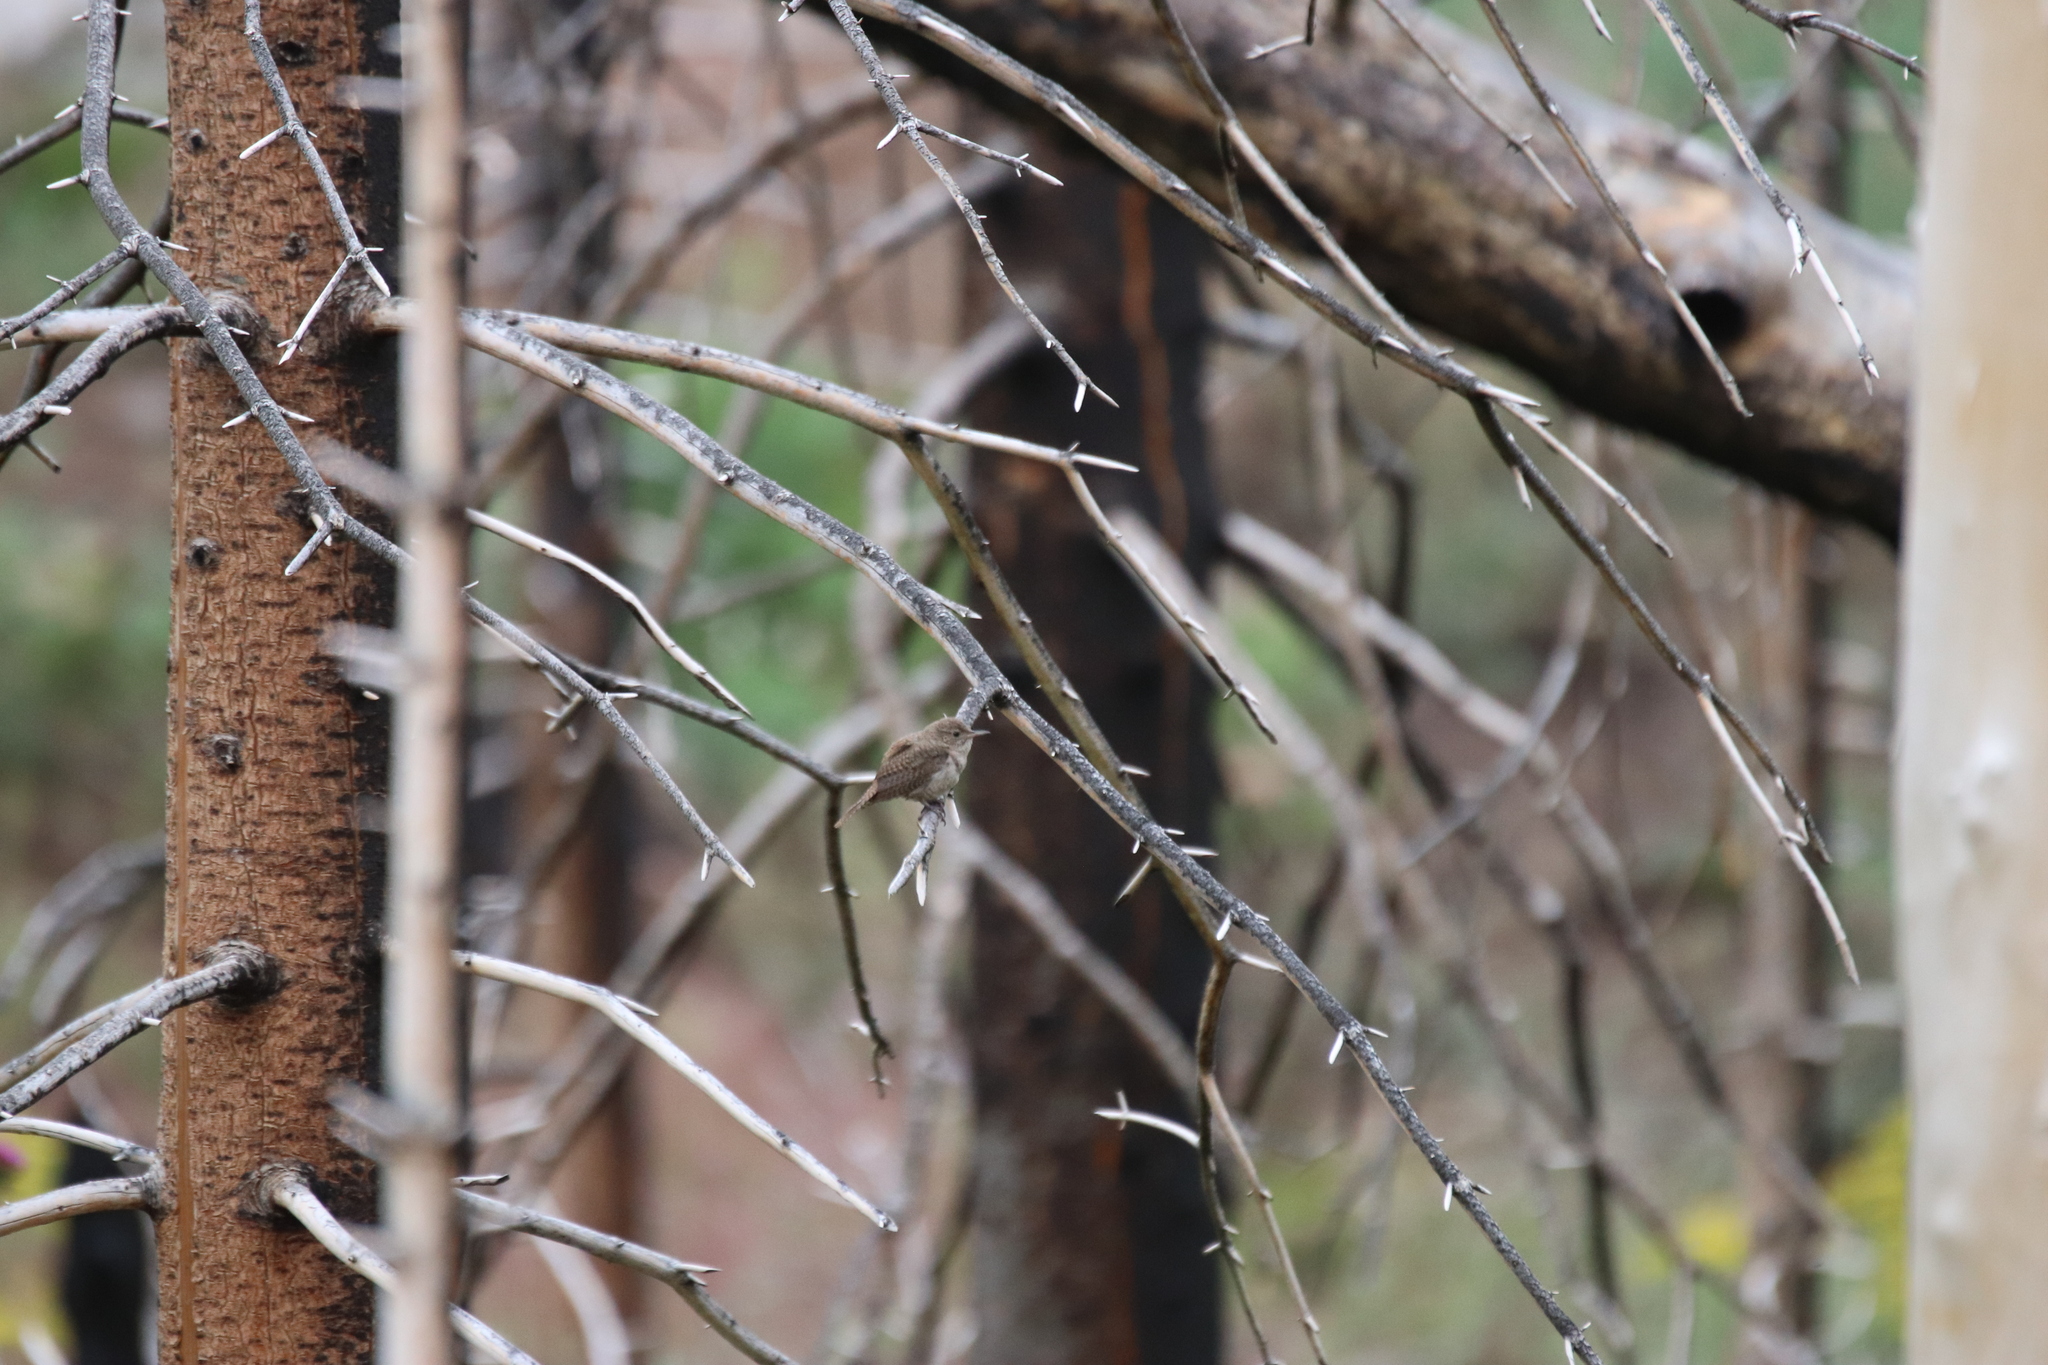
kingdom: Animalia
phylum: Chordata
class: Aves
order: Passeriformes
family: Troglodytidae
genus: Troglodytes
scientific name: Troglodytes aedon
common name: House wren
